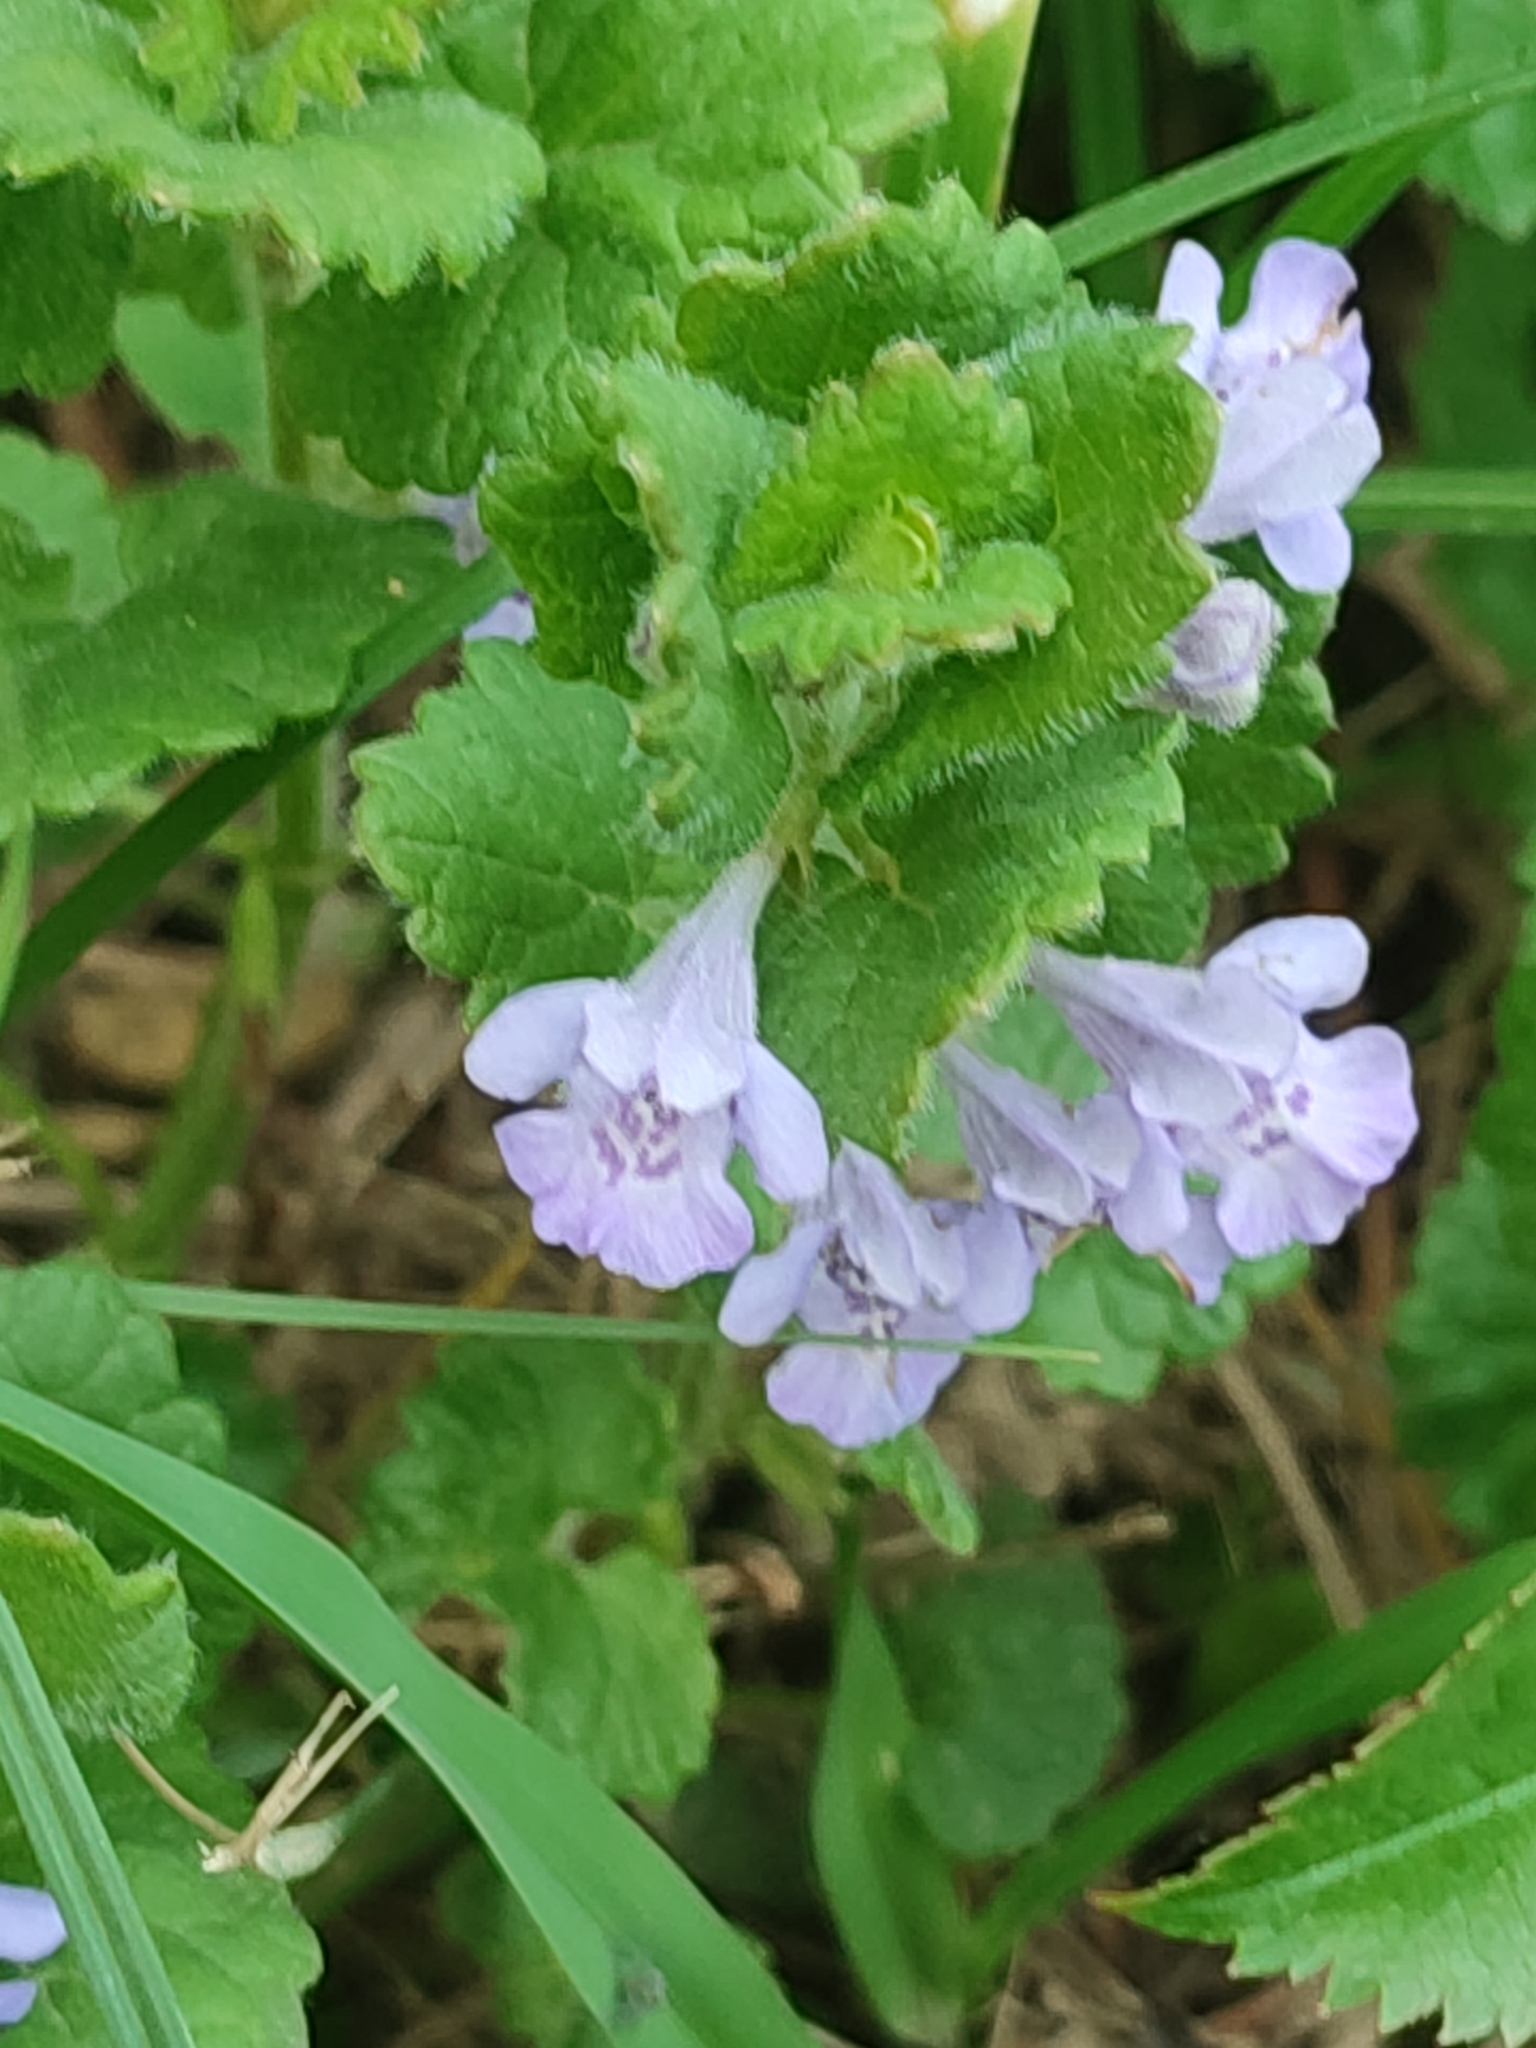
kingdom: Plantae
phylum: Tracheophyta
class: Magnoliopsida
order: Lamiales
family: Lamiaceae
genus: Glechoma
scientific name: Glechoma hederacea
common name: Ground ivy
